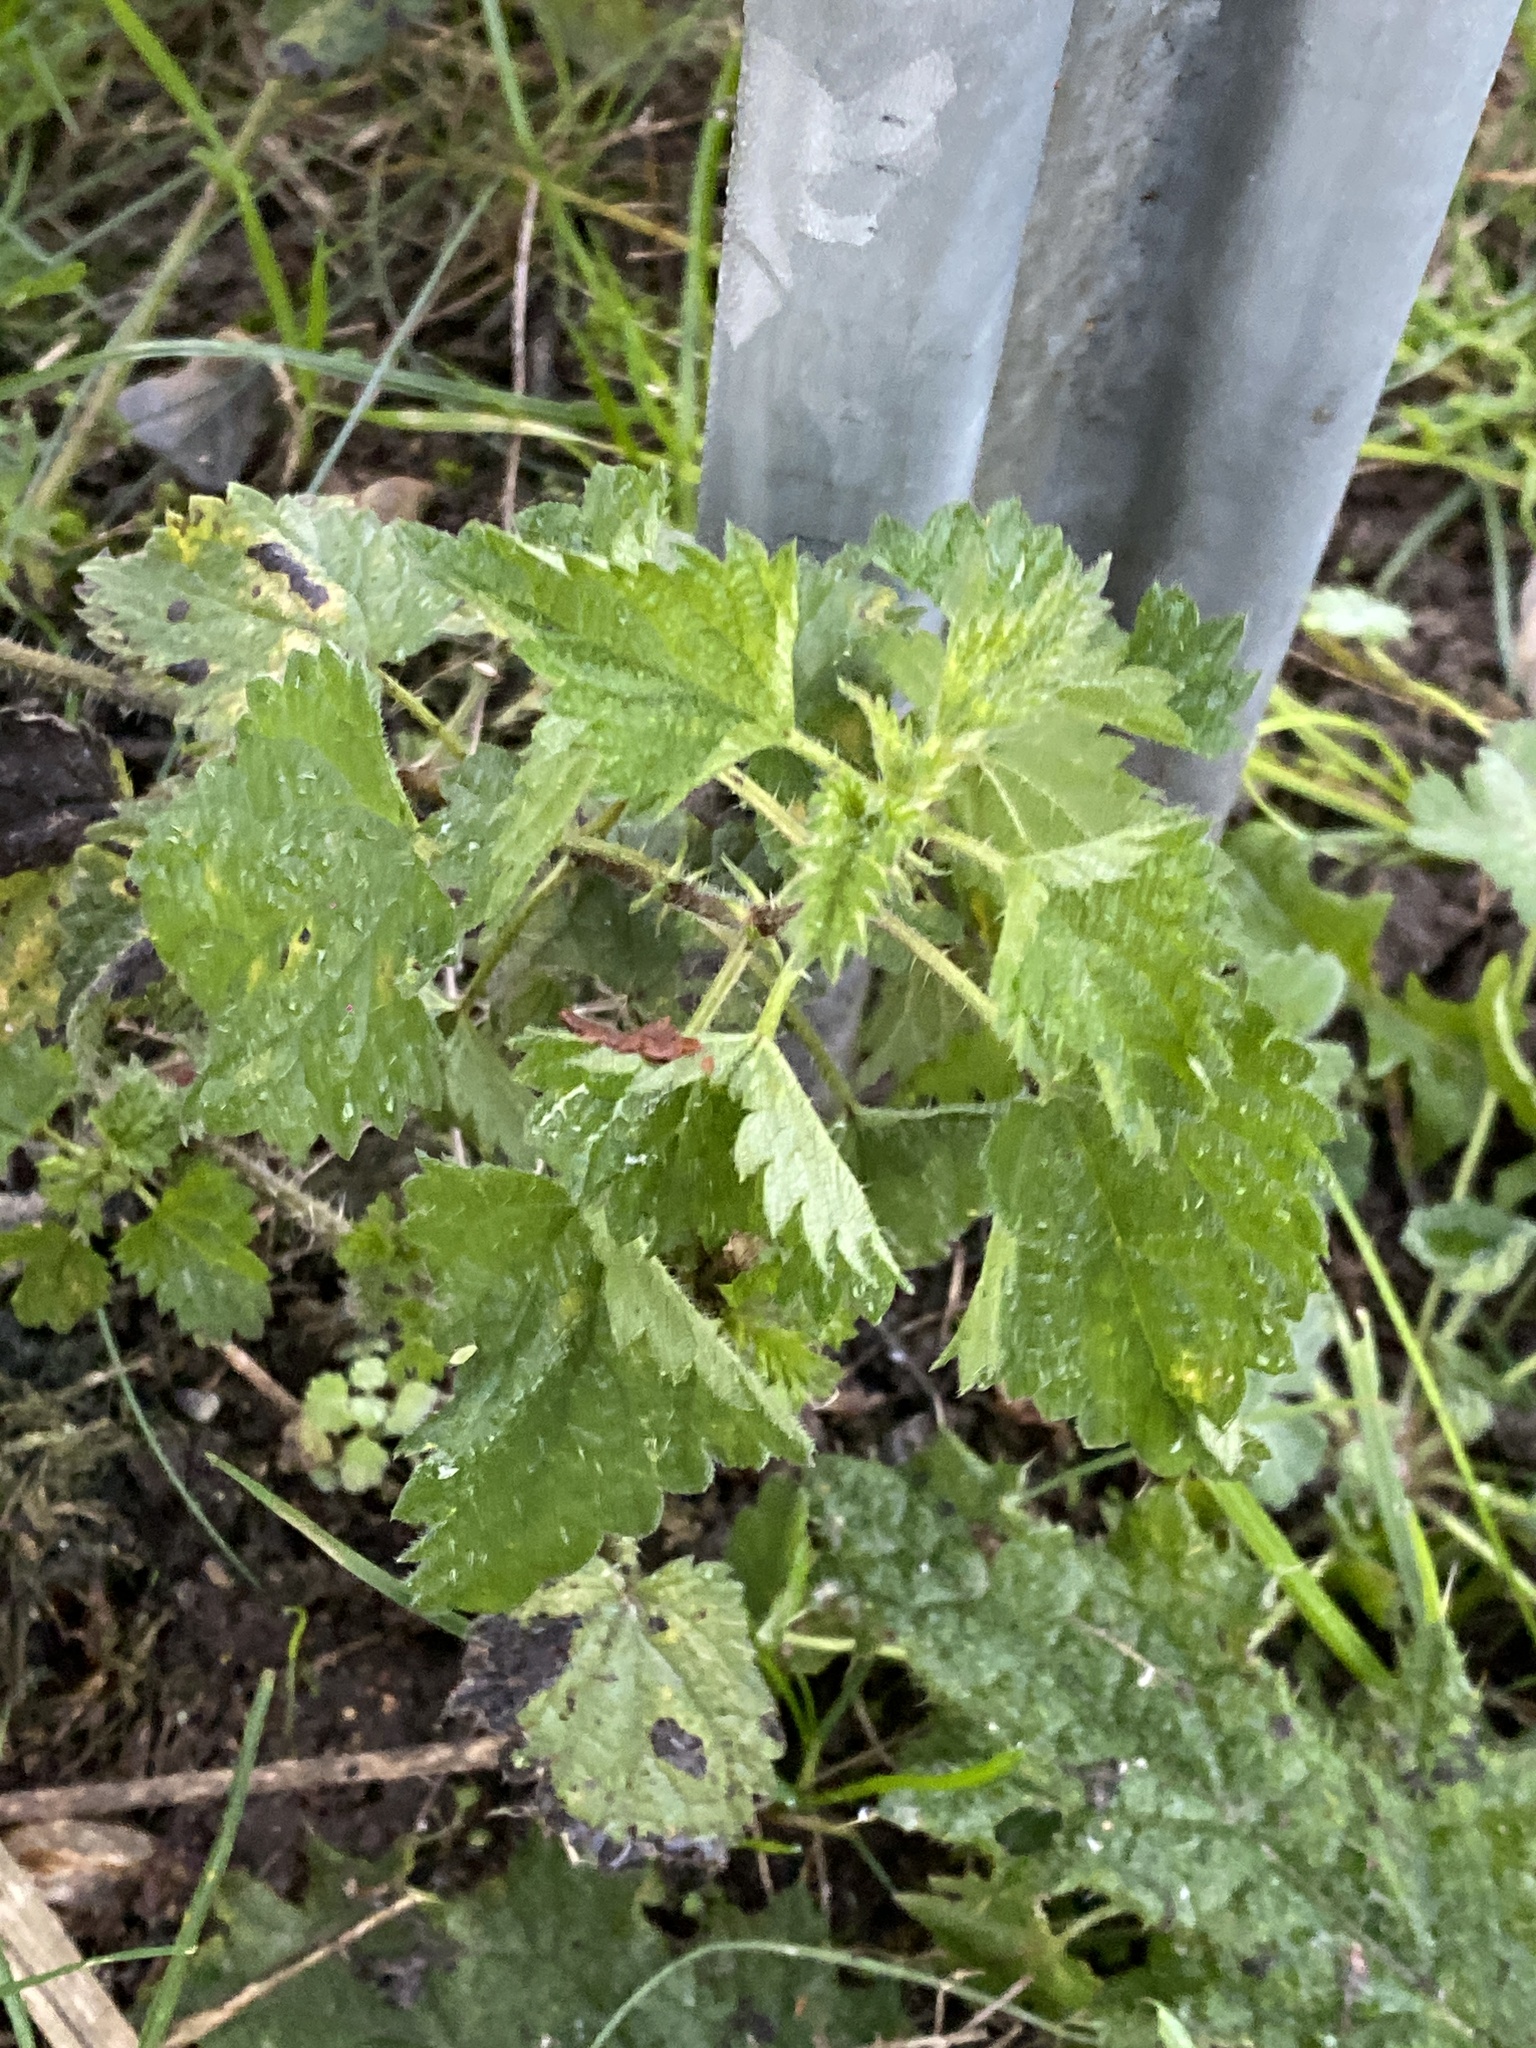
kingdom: Plantae
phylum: Tracheophyta
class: Magnoliopsida
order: Rosales
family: Urticaceae
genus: Urtica
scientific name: Urtica dioica
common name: Common nettle
